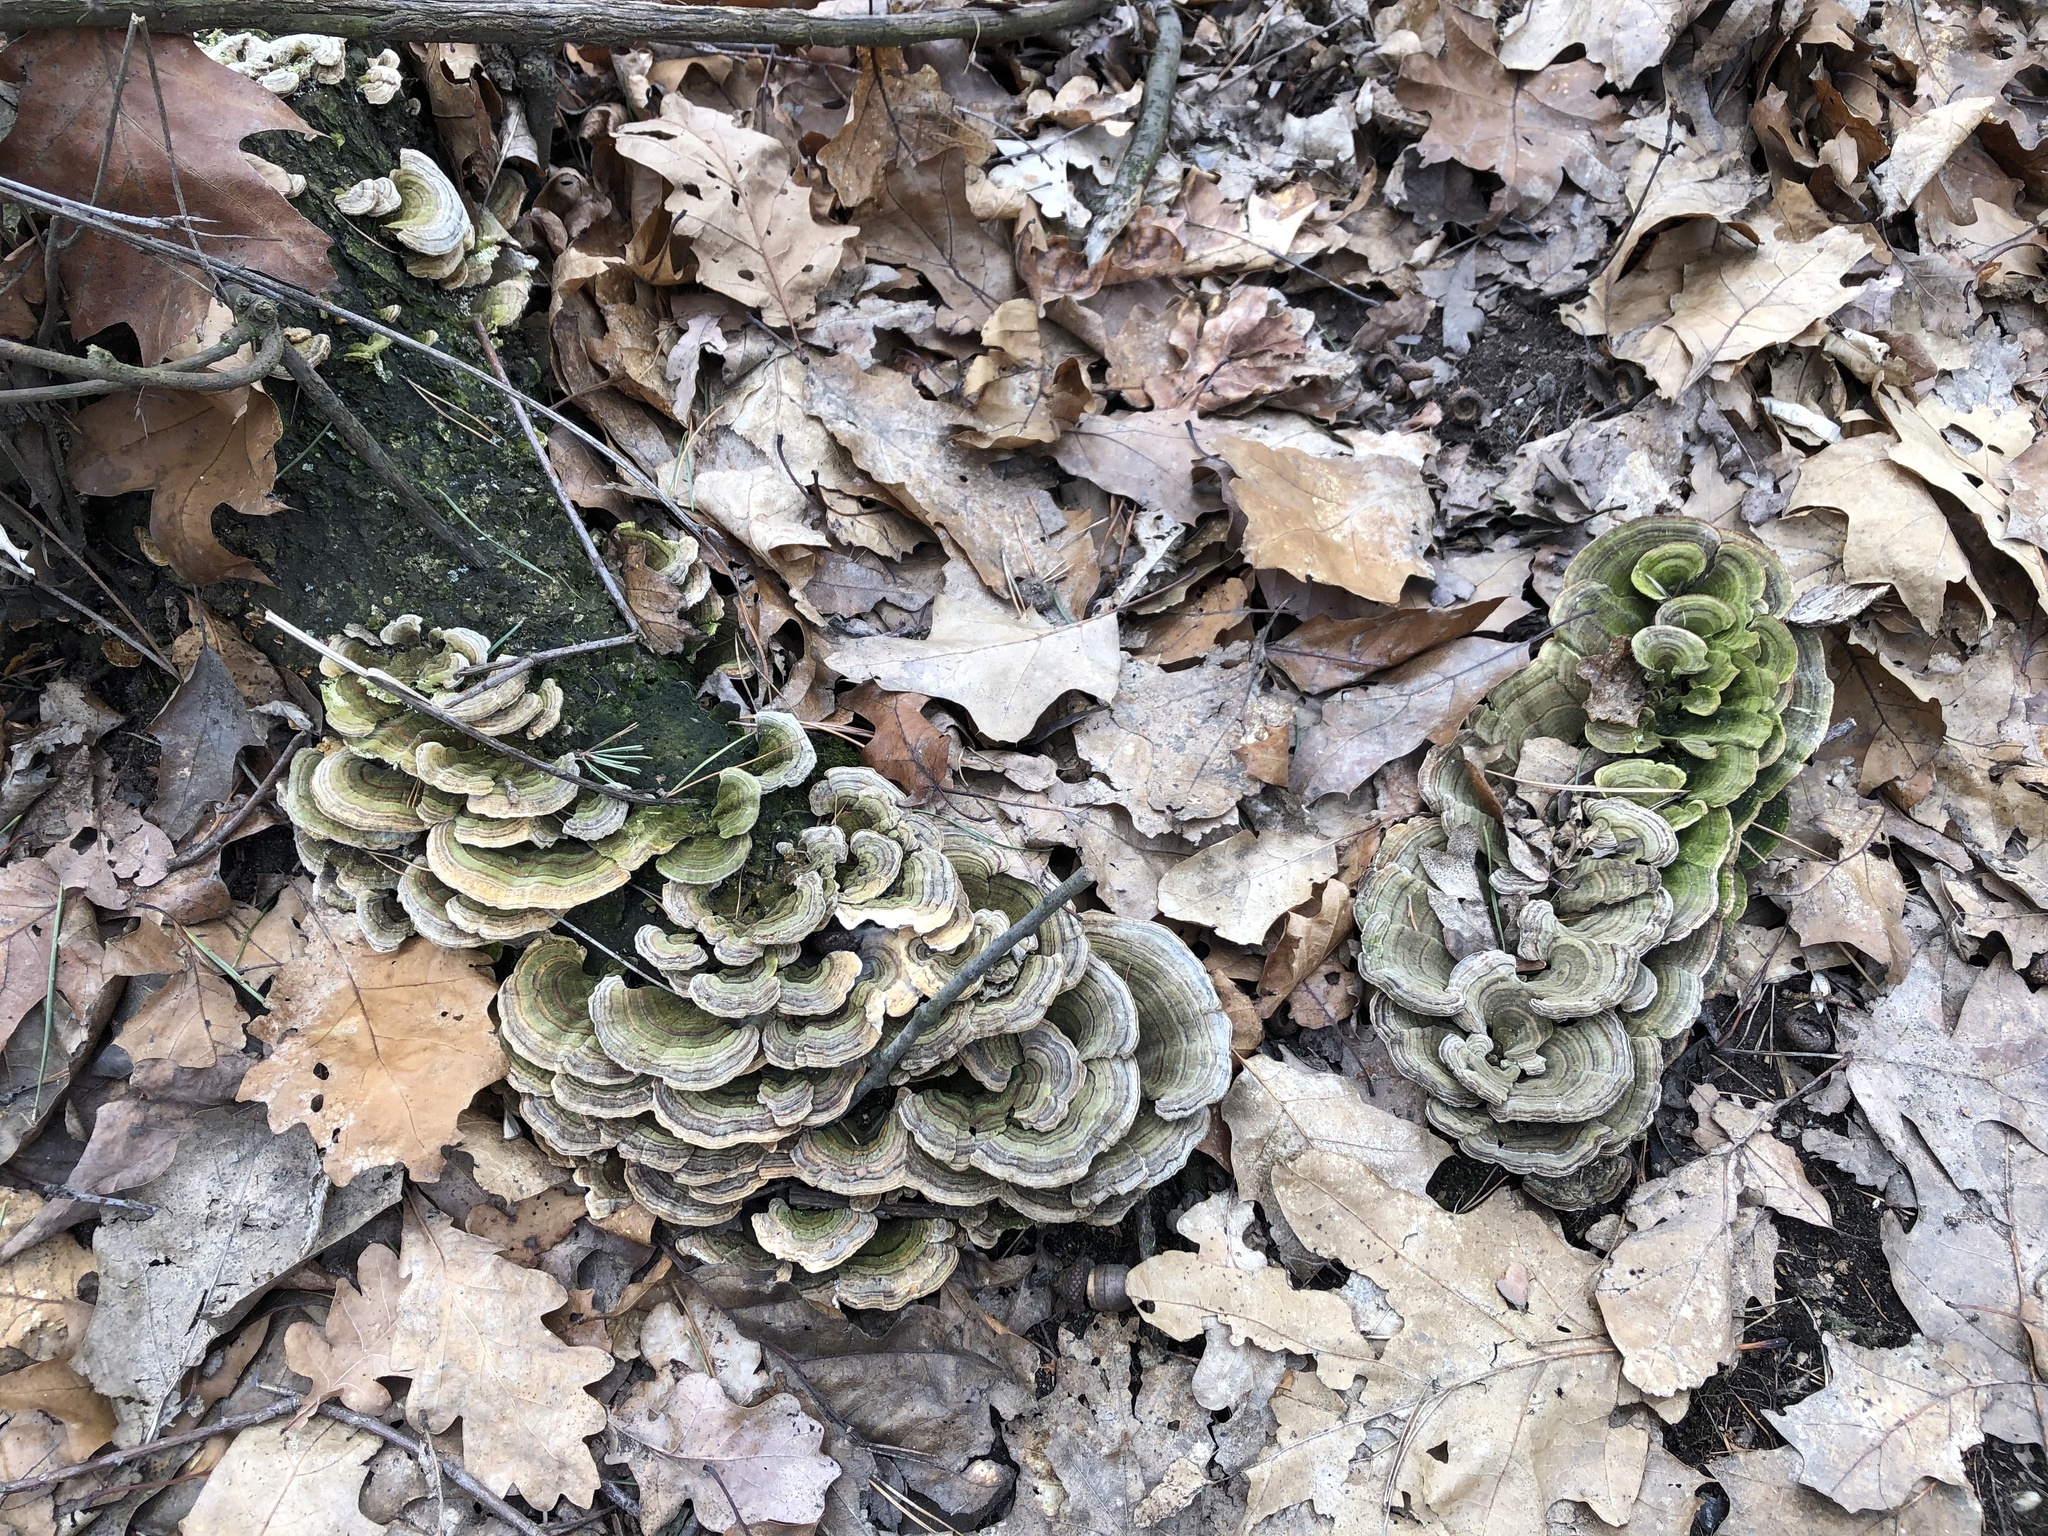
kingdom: Fungi
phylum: Basidiomycota
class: Agaricomycetes
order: Polyporales
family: Polyporaceae
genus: Trametes
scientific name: Trametes versicolor
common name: Turkeytail
